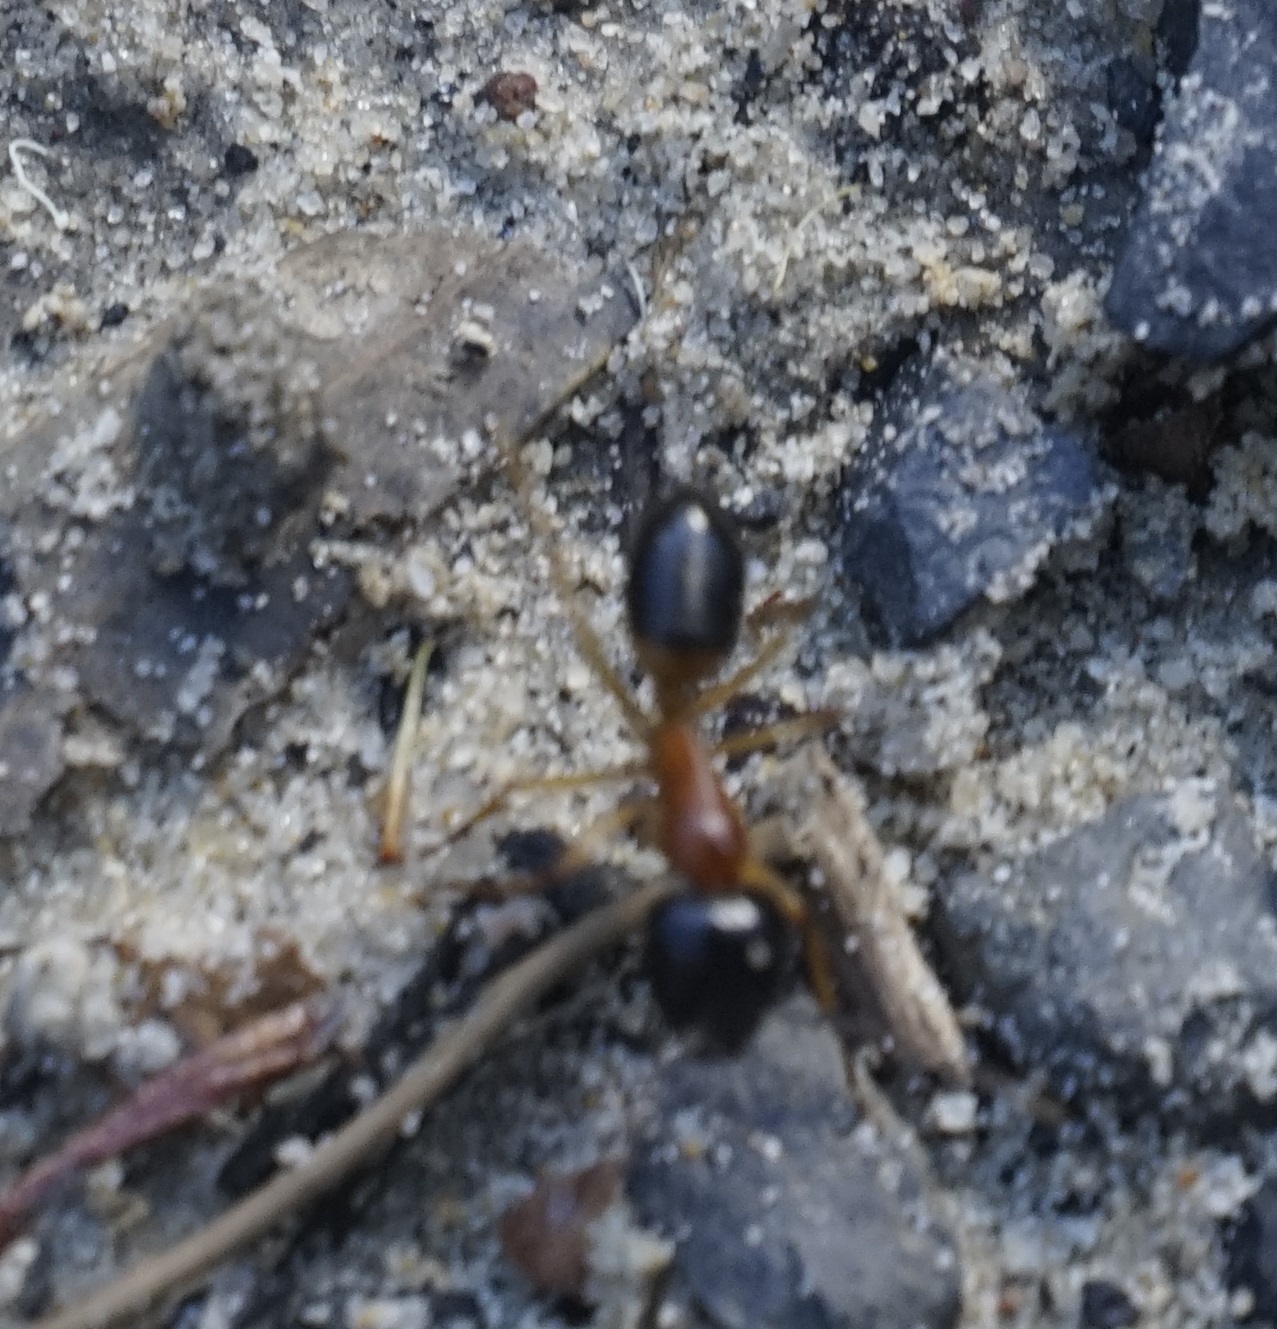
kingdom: Animalia
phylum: Arthropoda
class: Insecta
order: Hymenoptera
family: Formicidae
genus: Camponotus
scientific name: Camponotus consobrinus
